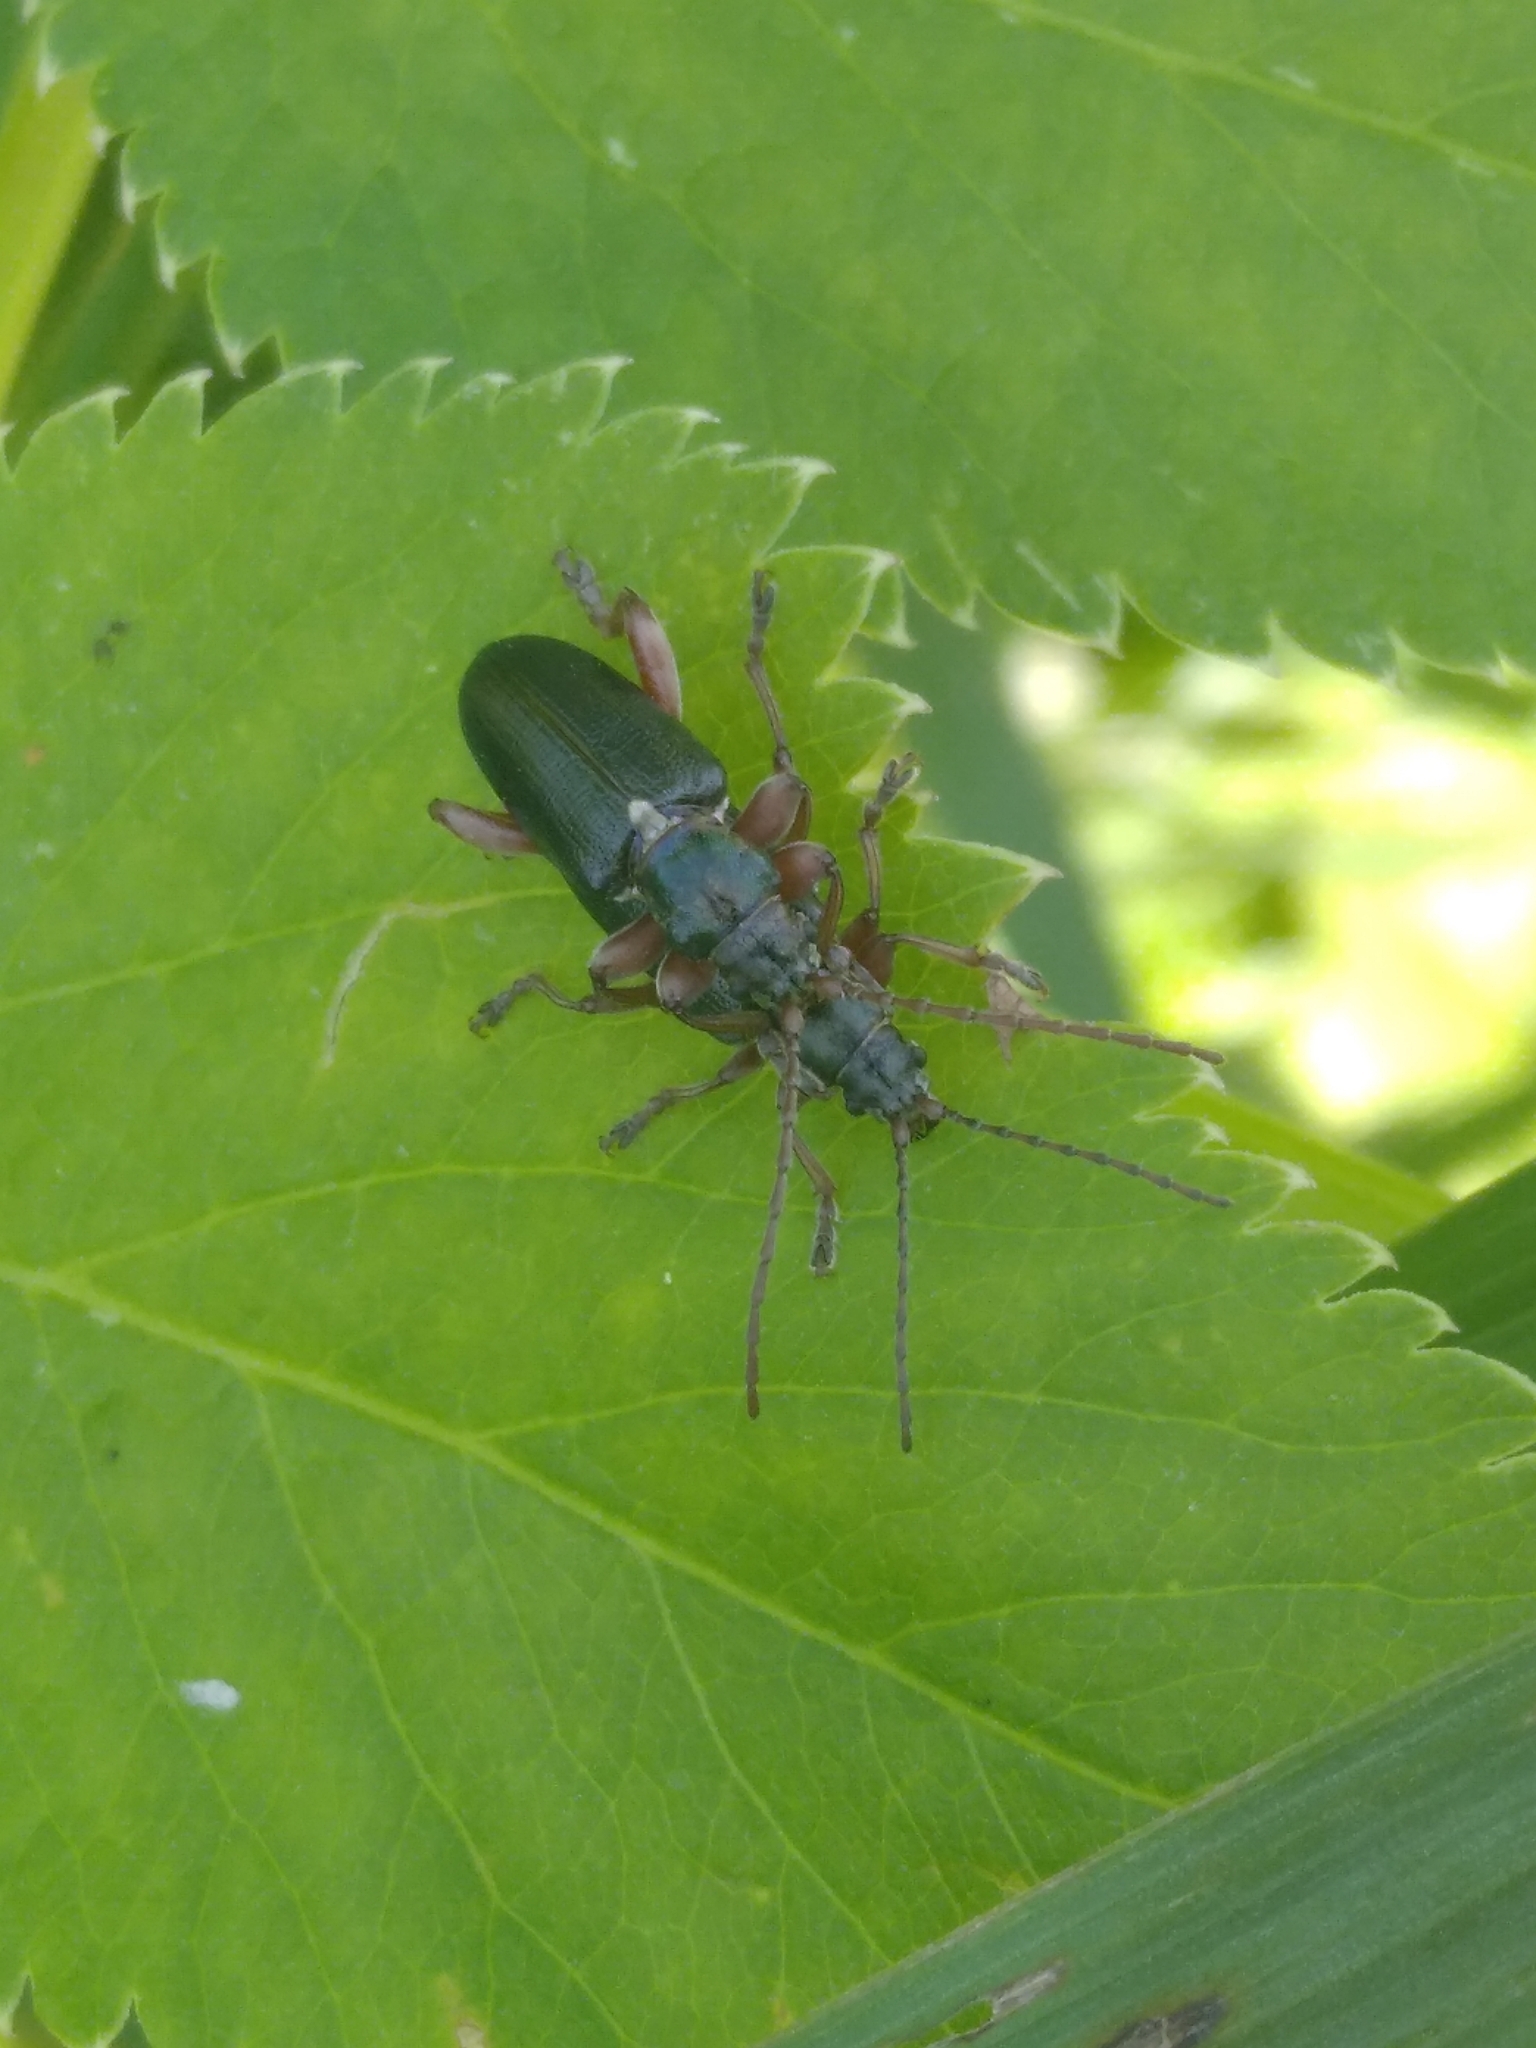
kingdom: Animalia
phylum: Arthropoda
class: Insecta
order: Coleoptera
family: Chrysomelidae
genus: Plateumaris
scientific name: Plateumaris braccata
